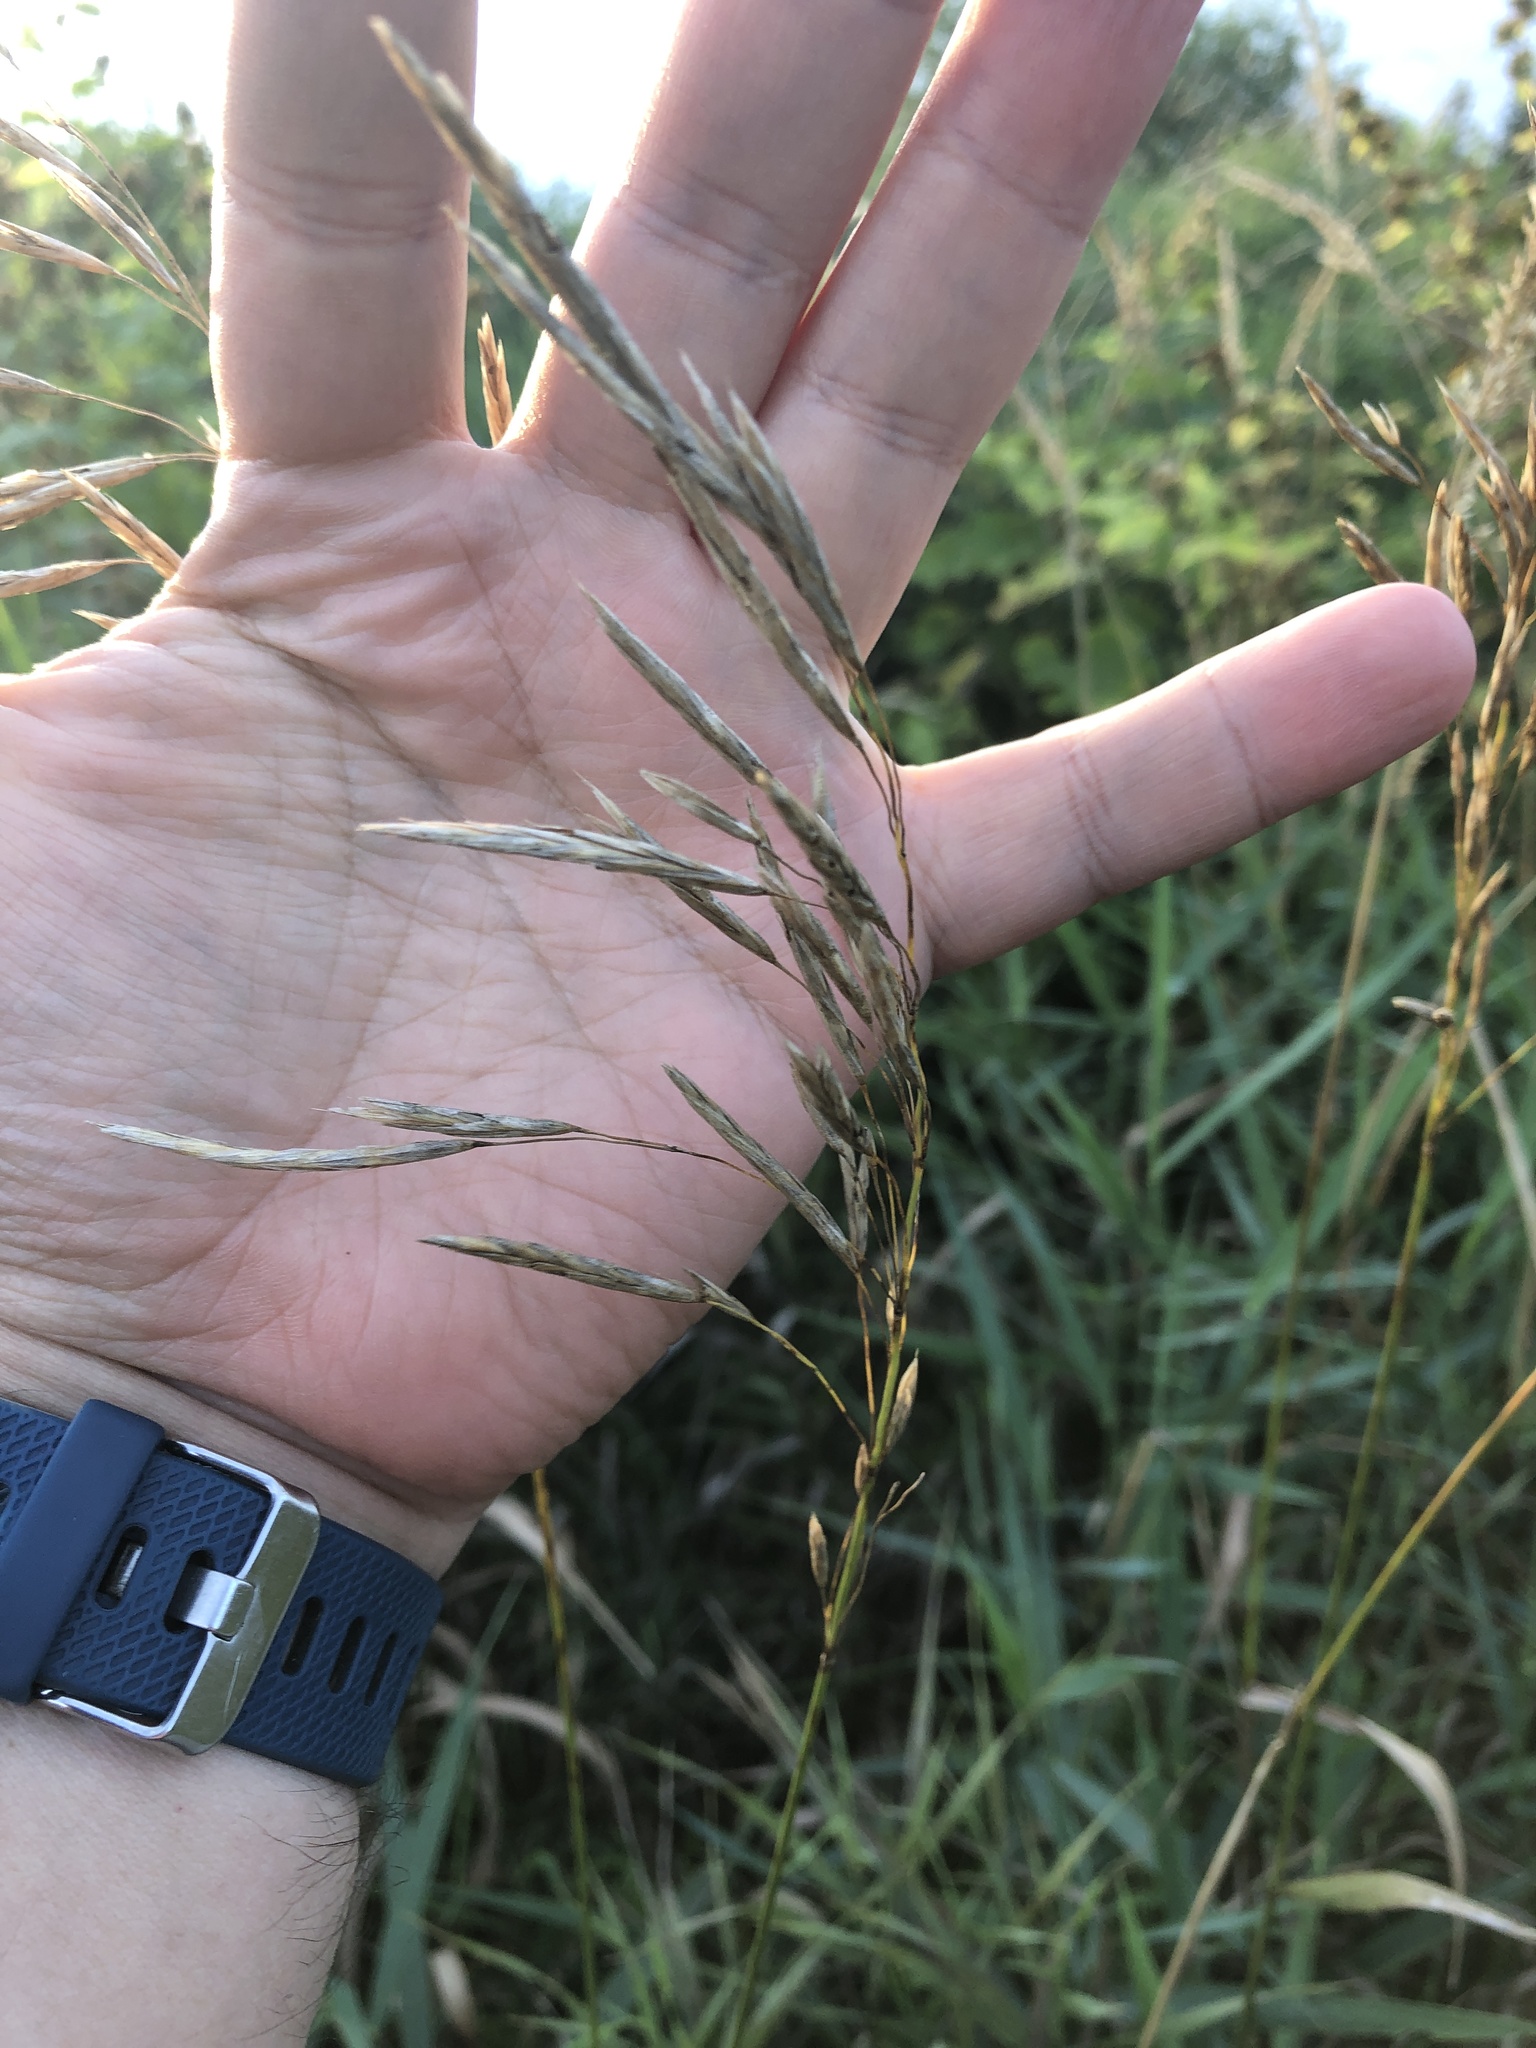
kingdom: Plantae
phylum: Tracheophyta
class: Liliopsida
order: Poales
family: Poaceae
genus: Bromus
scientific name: Bromus inermis
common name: Smooth brome
